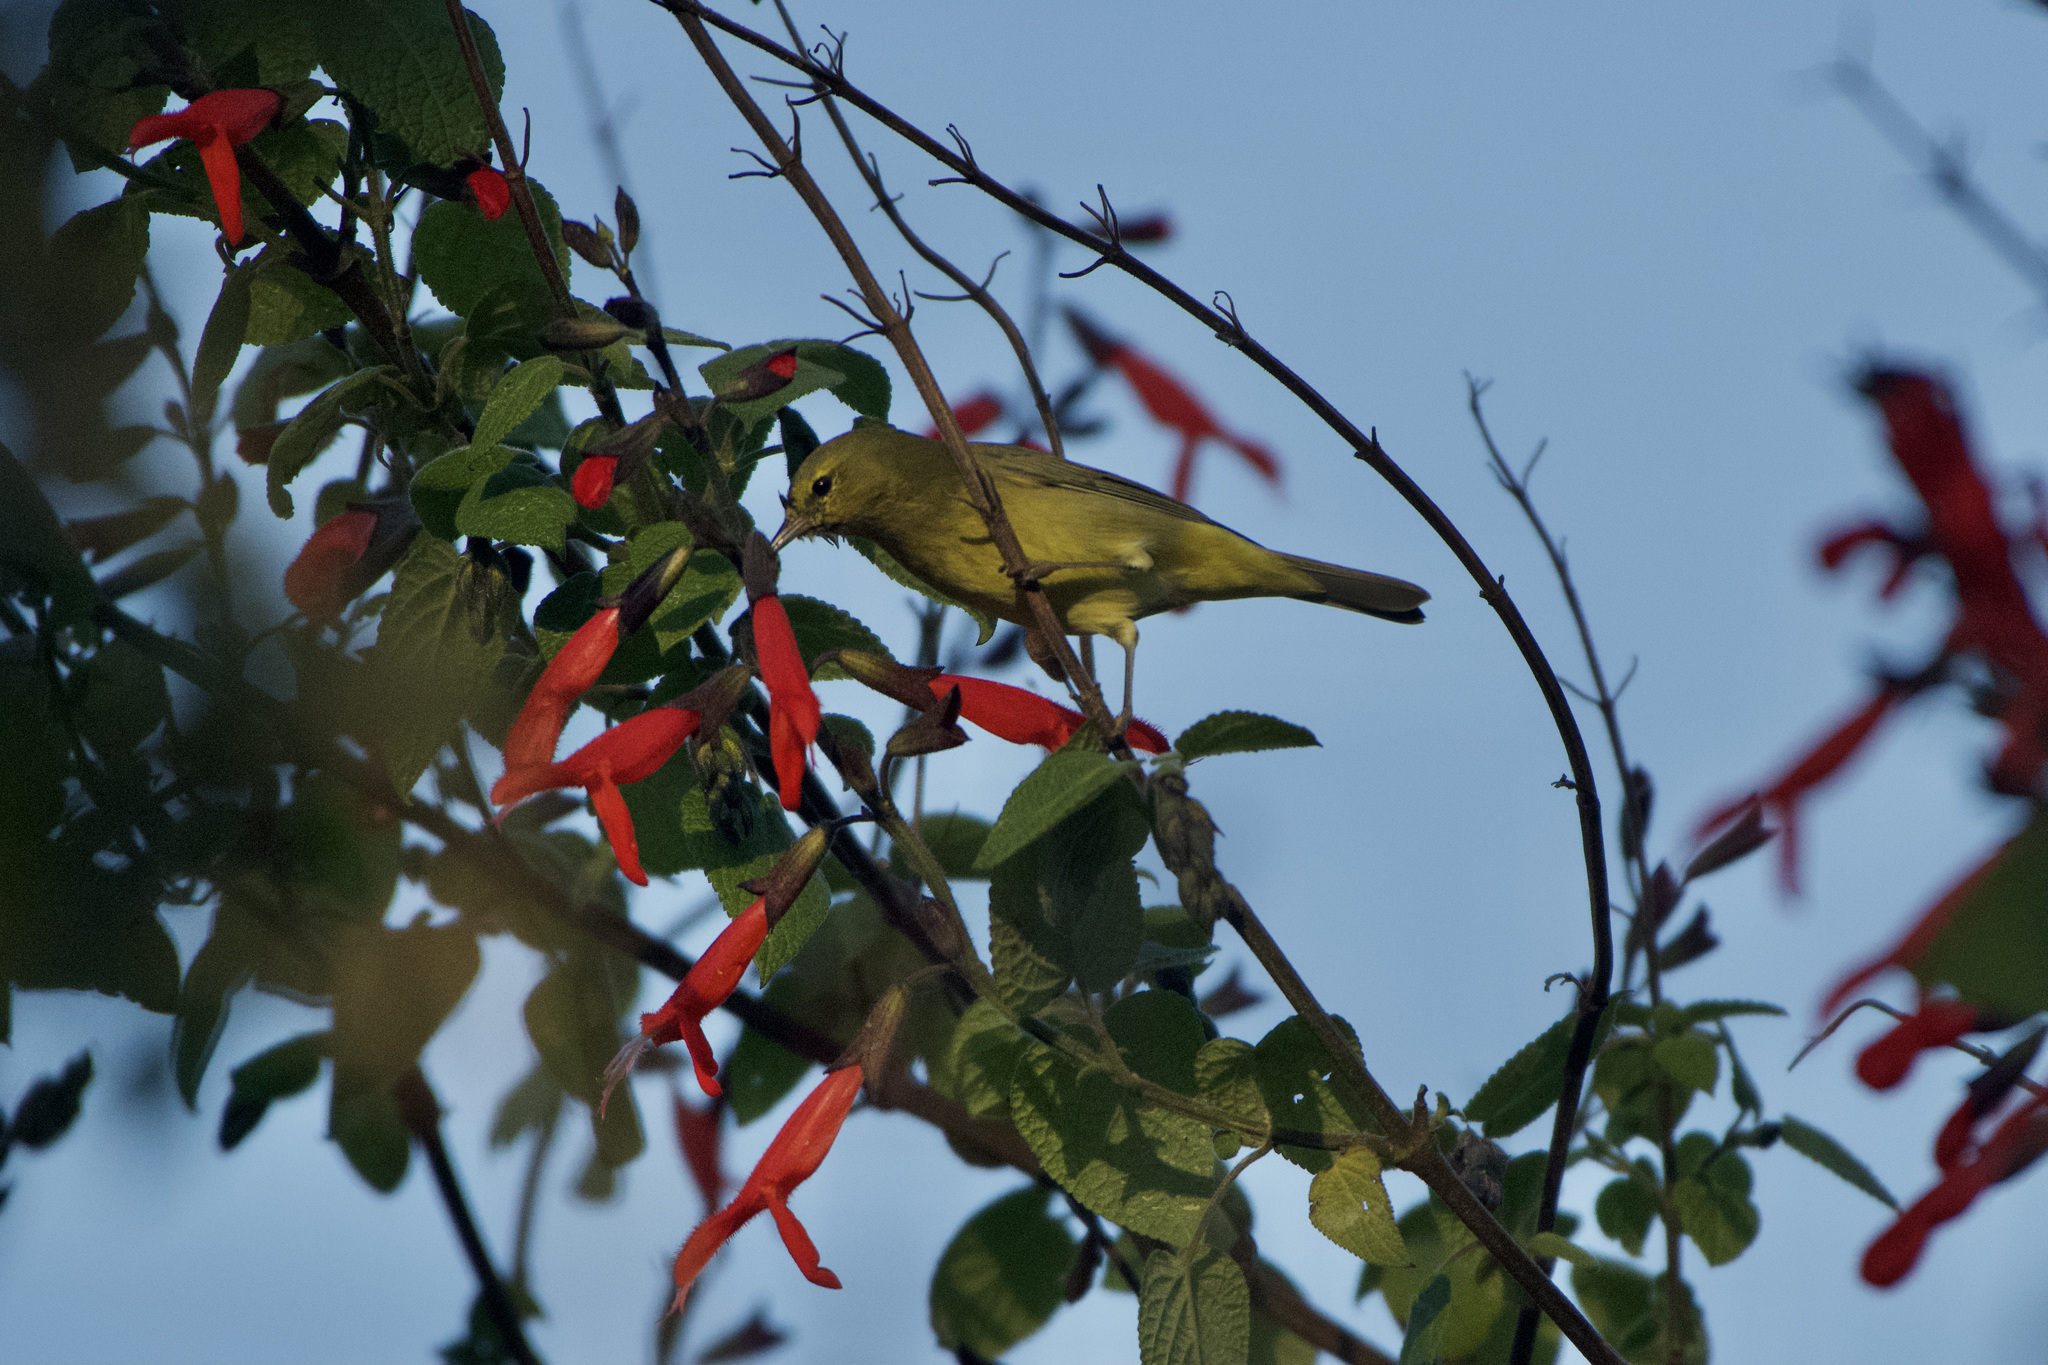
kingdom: Animalia
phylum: Chordata
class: Aves
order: Passeriformes
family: Parulidae
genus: Leiothlypis
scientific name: Leiothlypis celata
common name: Orange-crowned warbler
